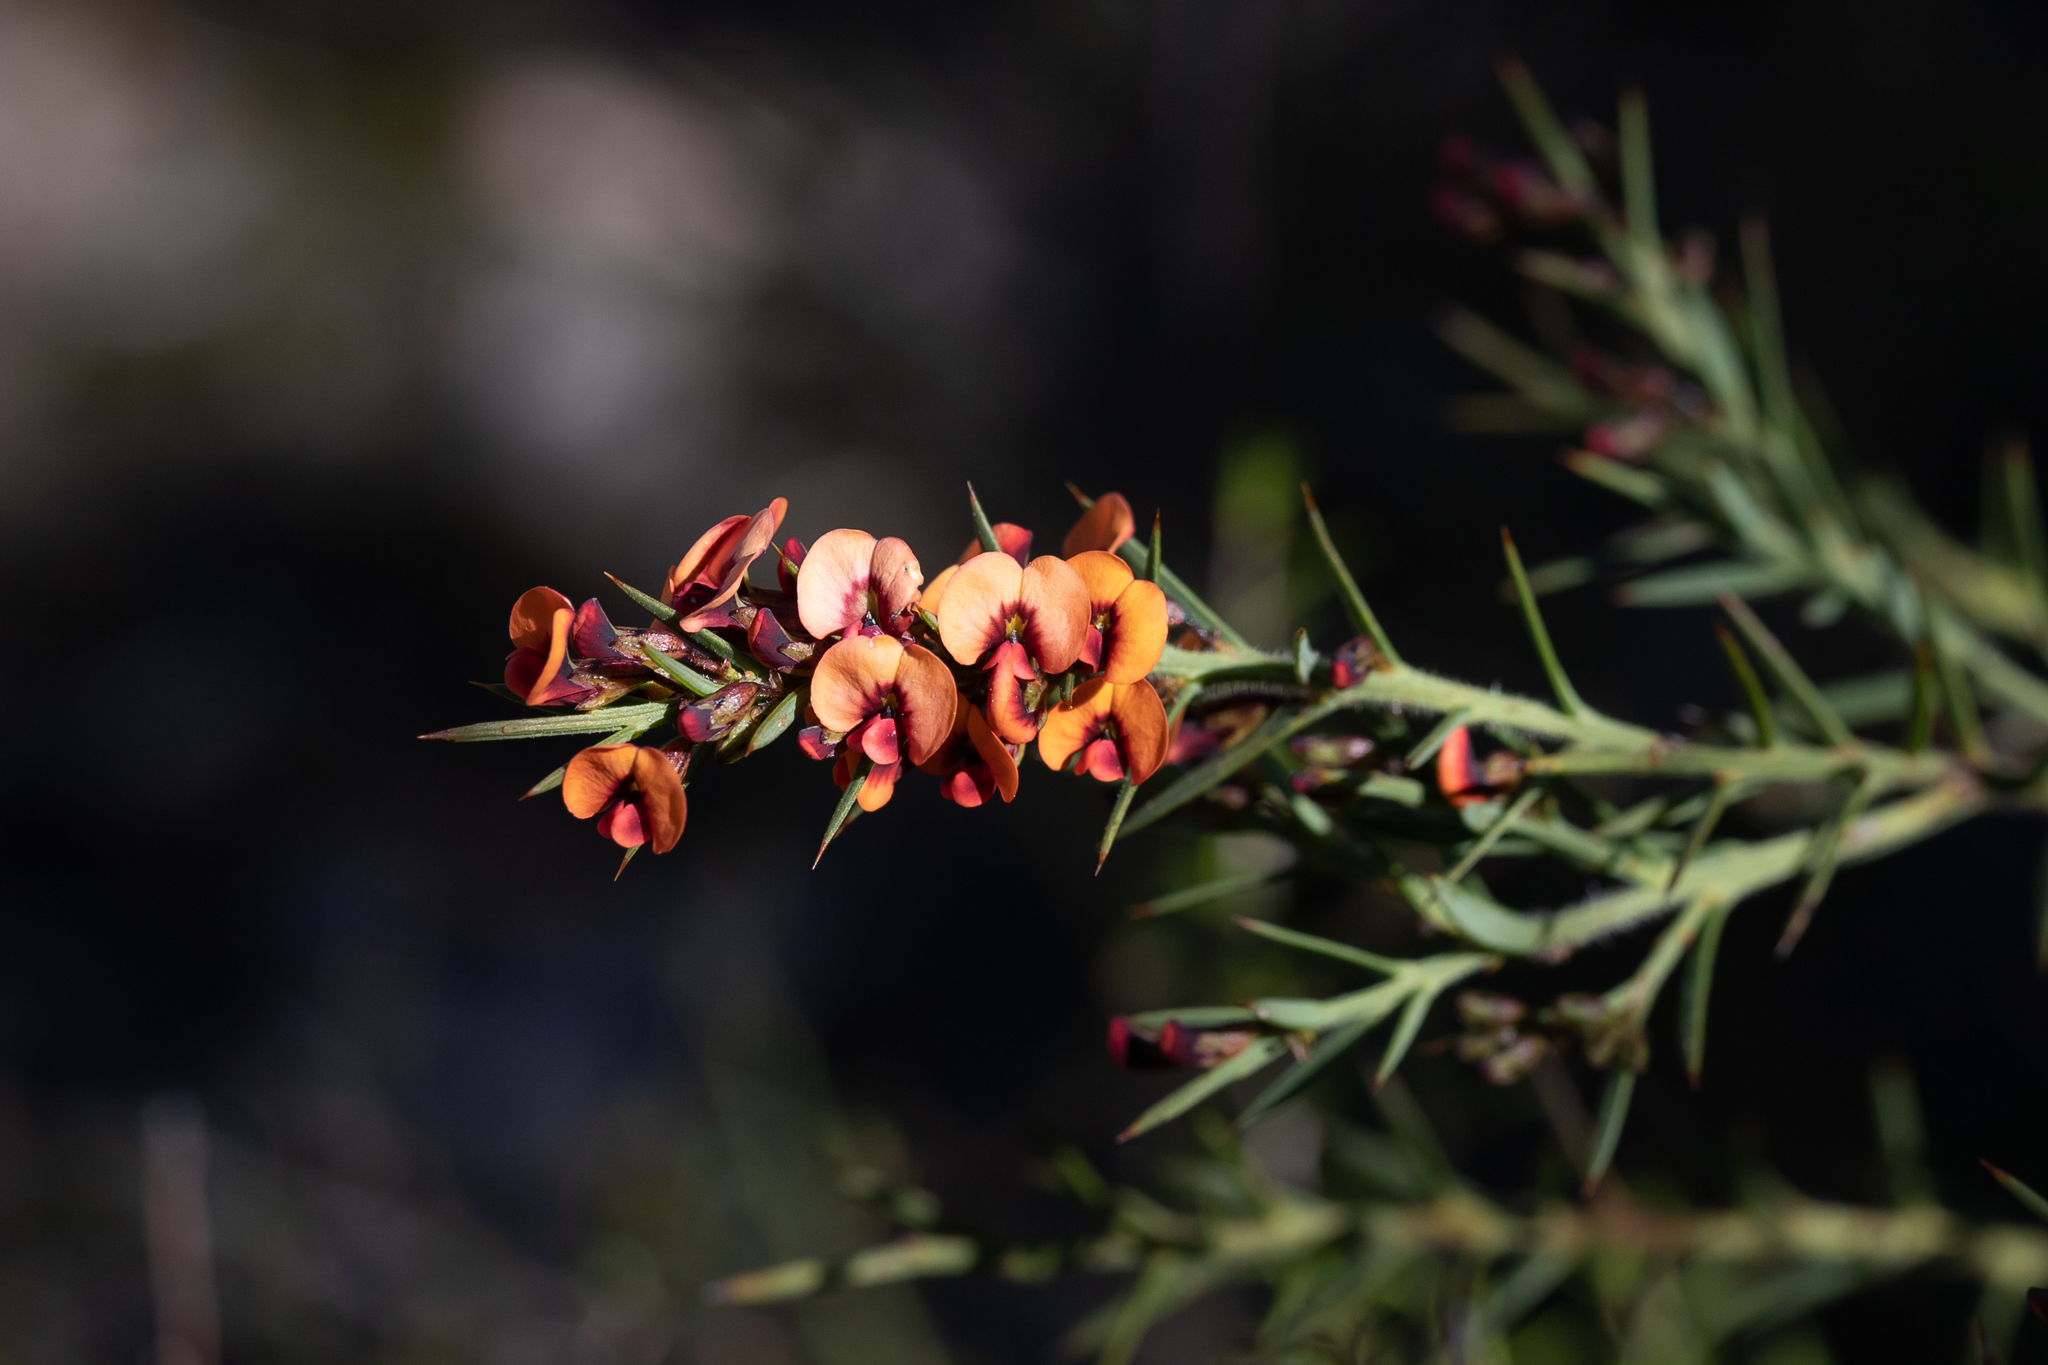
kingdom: Plantae
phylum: Tracheophyta
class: Magnoliopsida
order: Fabales
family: Fabaceae
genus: Daviesia
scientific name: Daviesia ulicifolia
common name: Gorse bitter-pea
